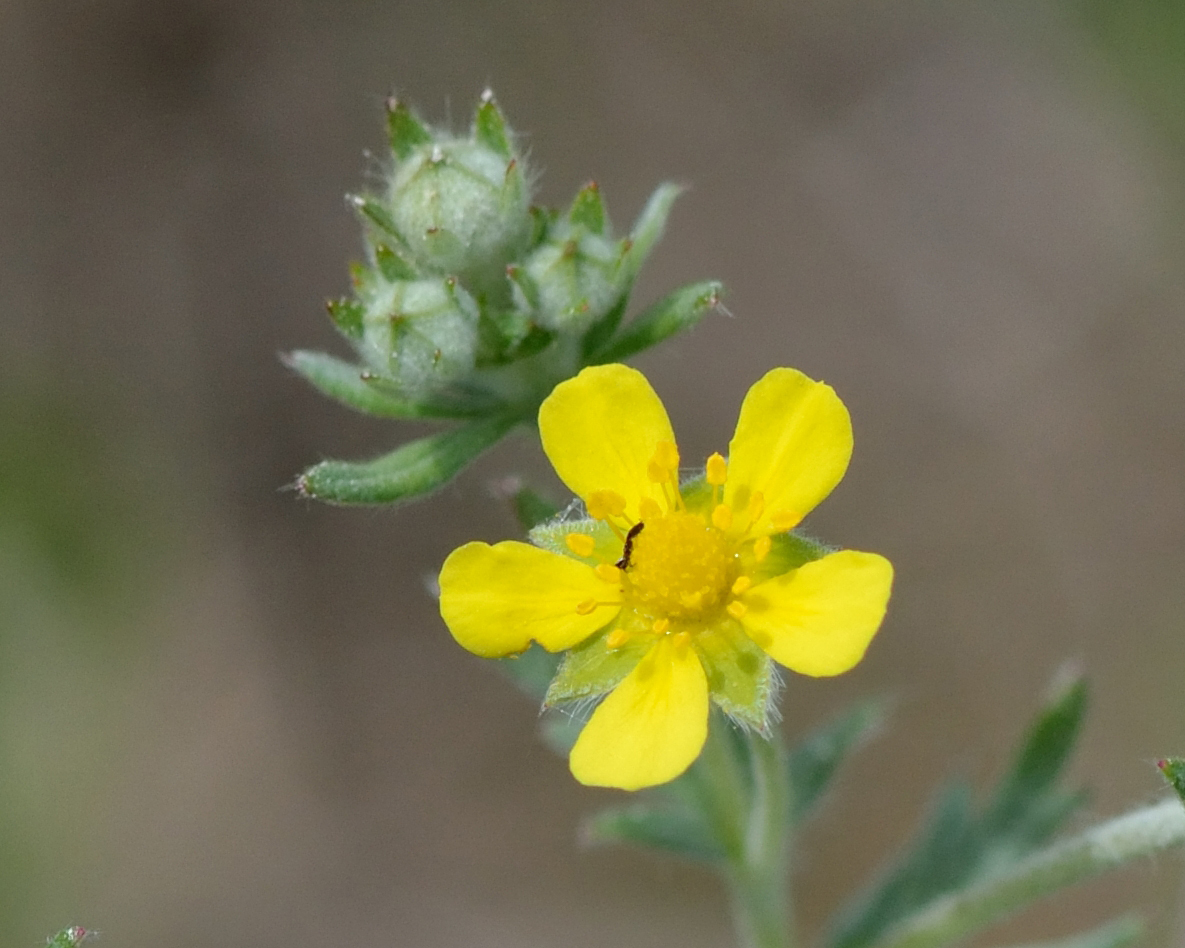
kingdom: Plantae
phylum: Tracheophyta
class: Magnoliopsida
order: Rosales
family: Rosaceae
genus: Potentilla
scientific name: Potentilla argentea
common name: Hoary cinquefoil
